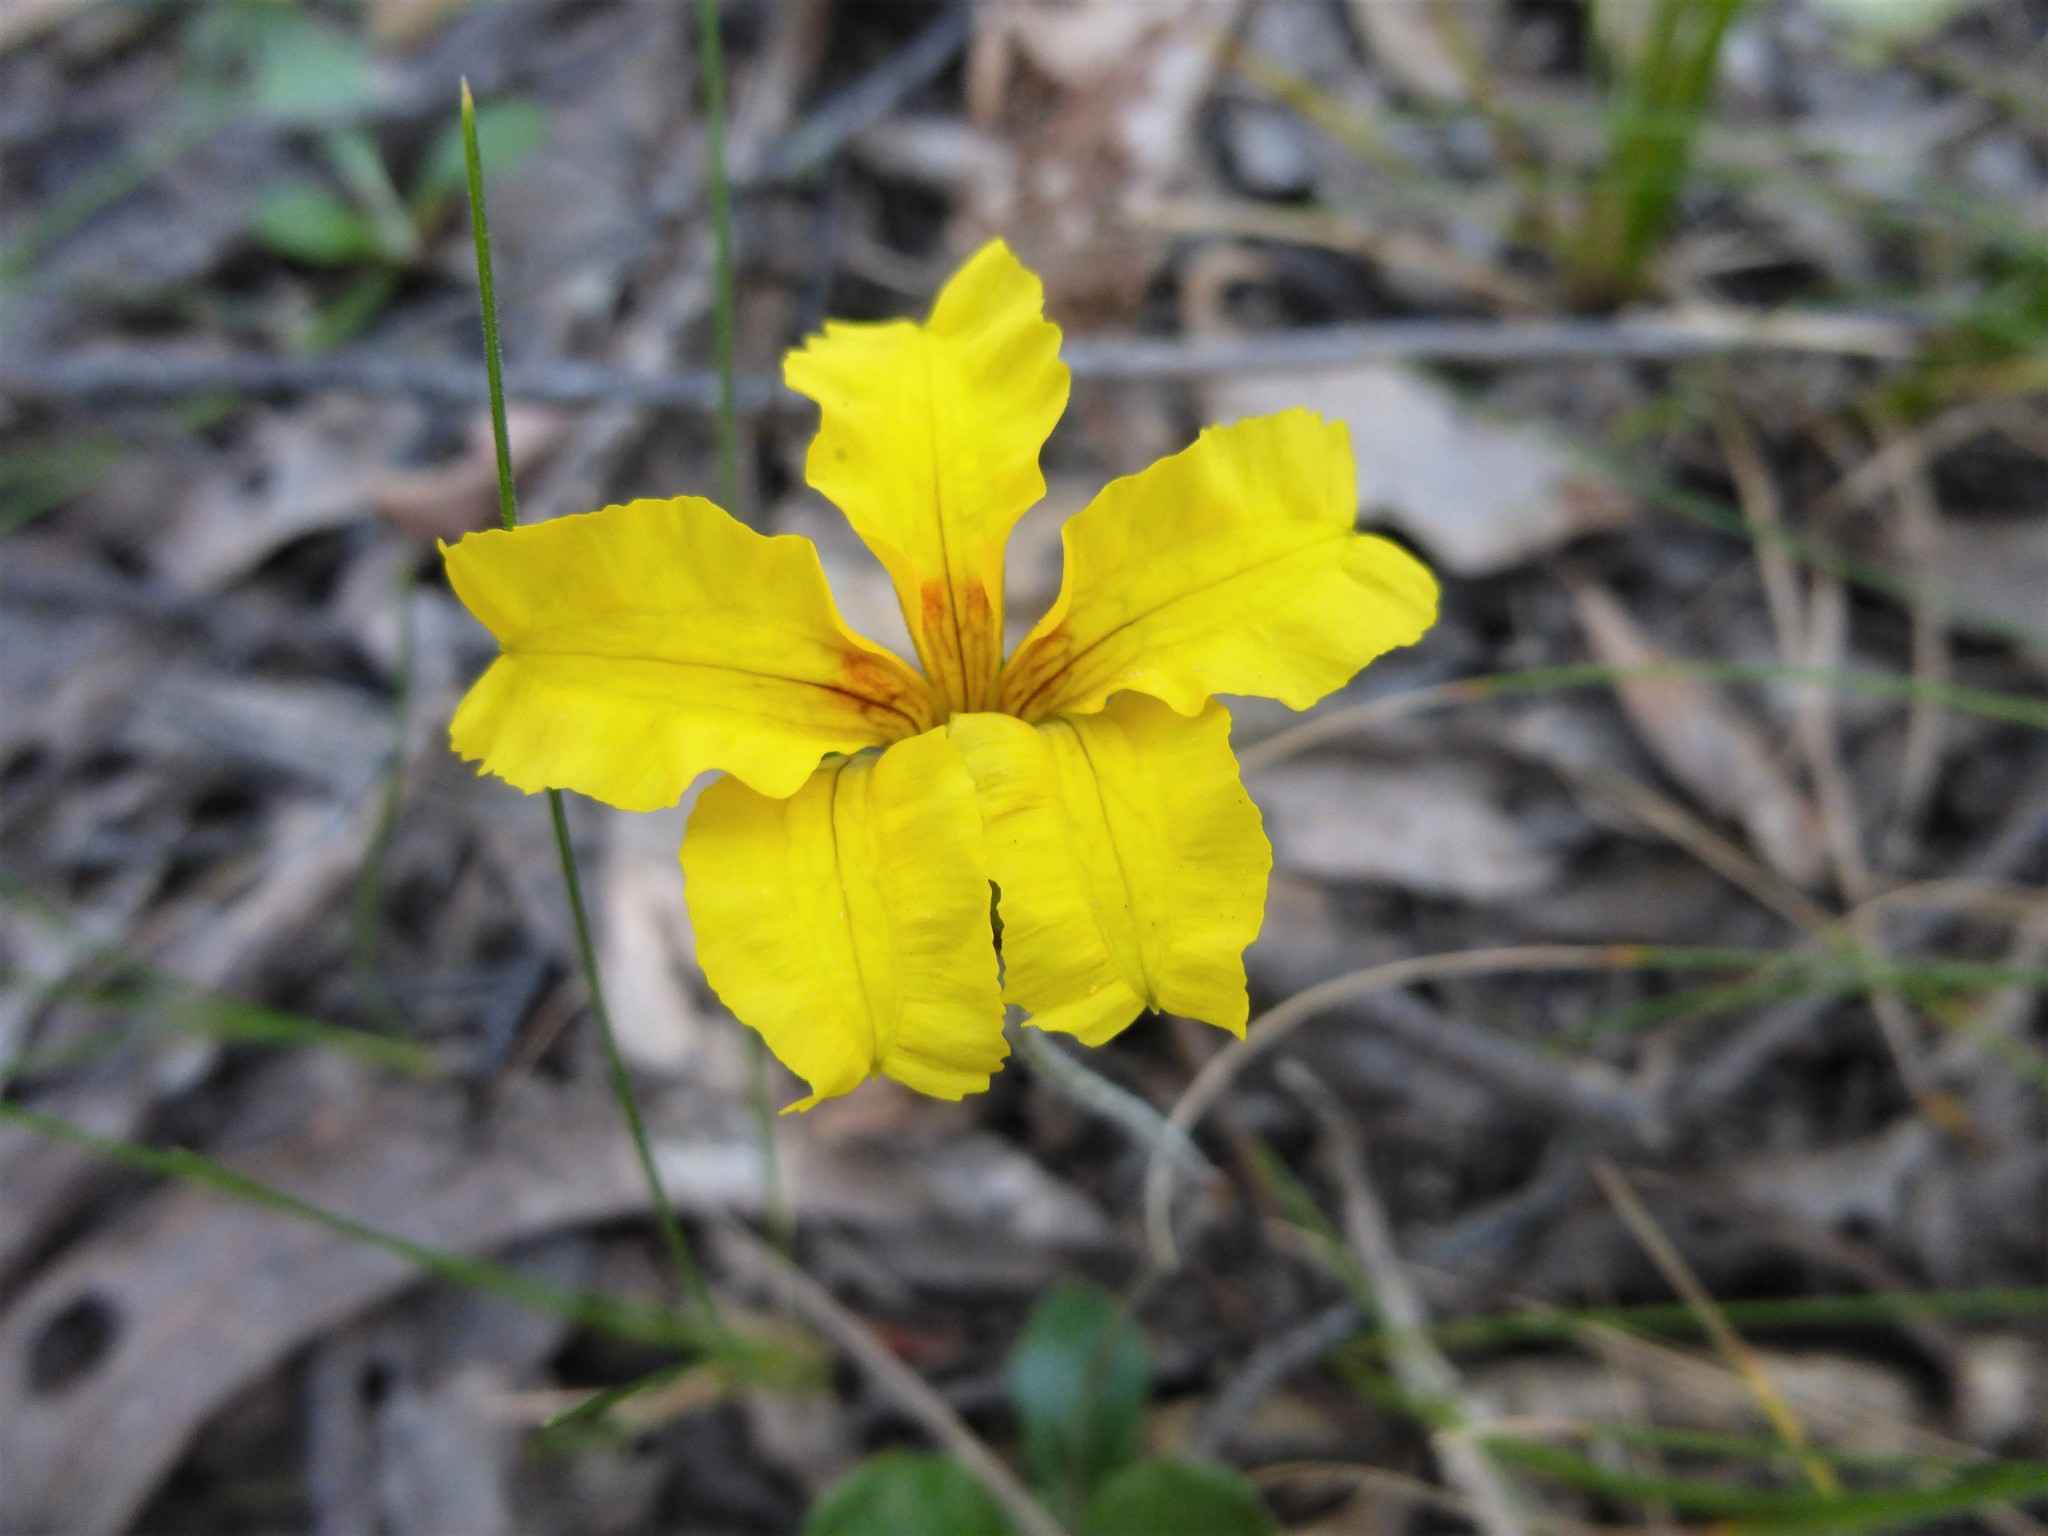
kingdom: Plantae
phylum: Tracheophyta
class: Magnoliopsida
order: Asterales
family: Goodeniaceae
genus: Goodenia
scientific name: Goodenia lanata
